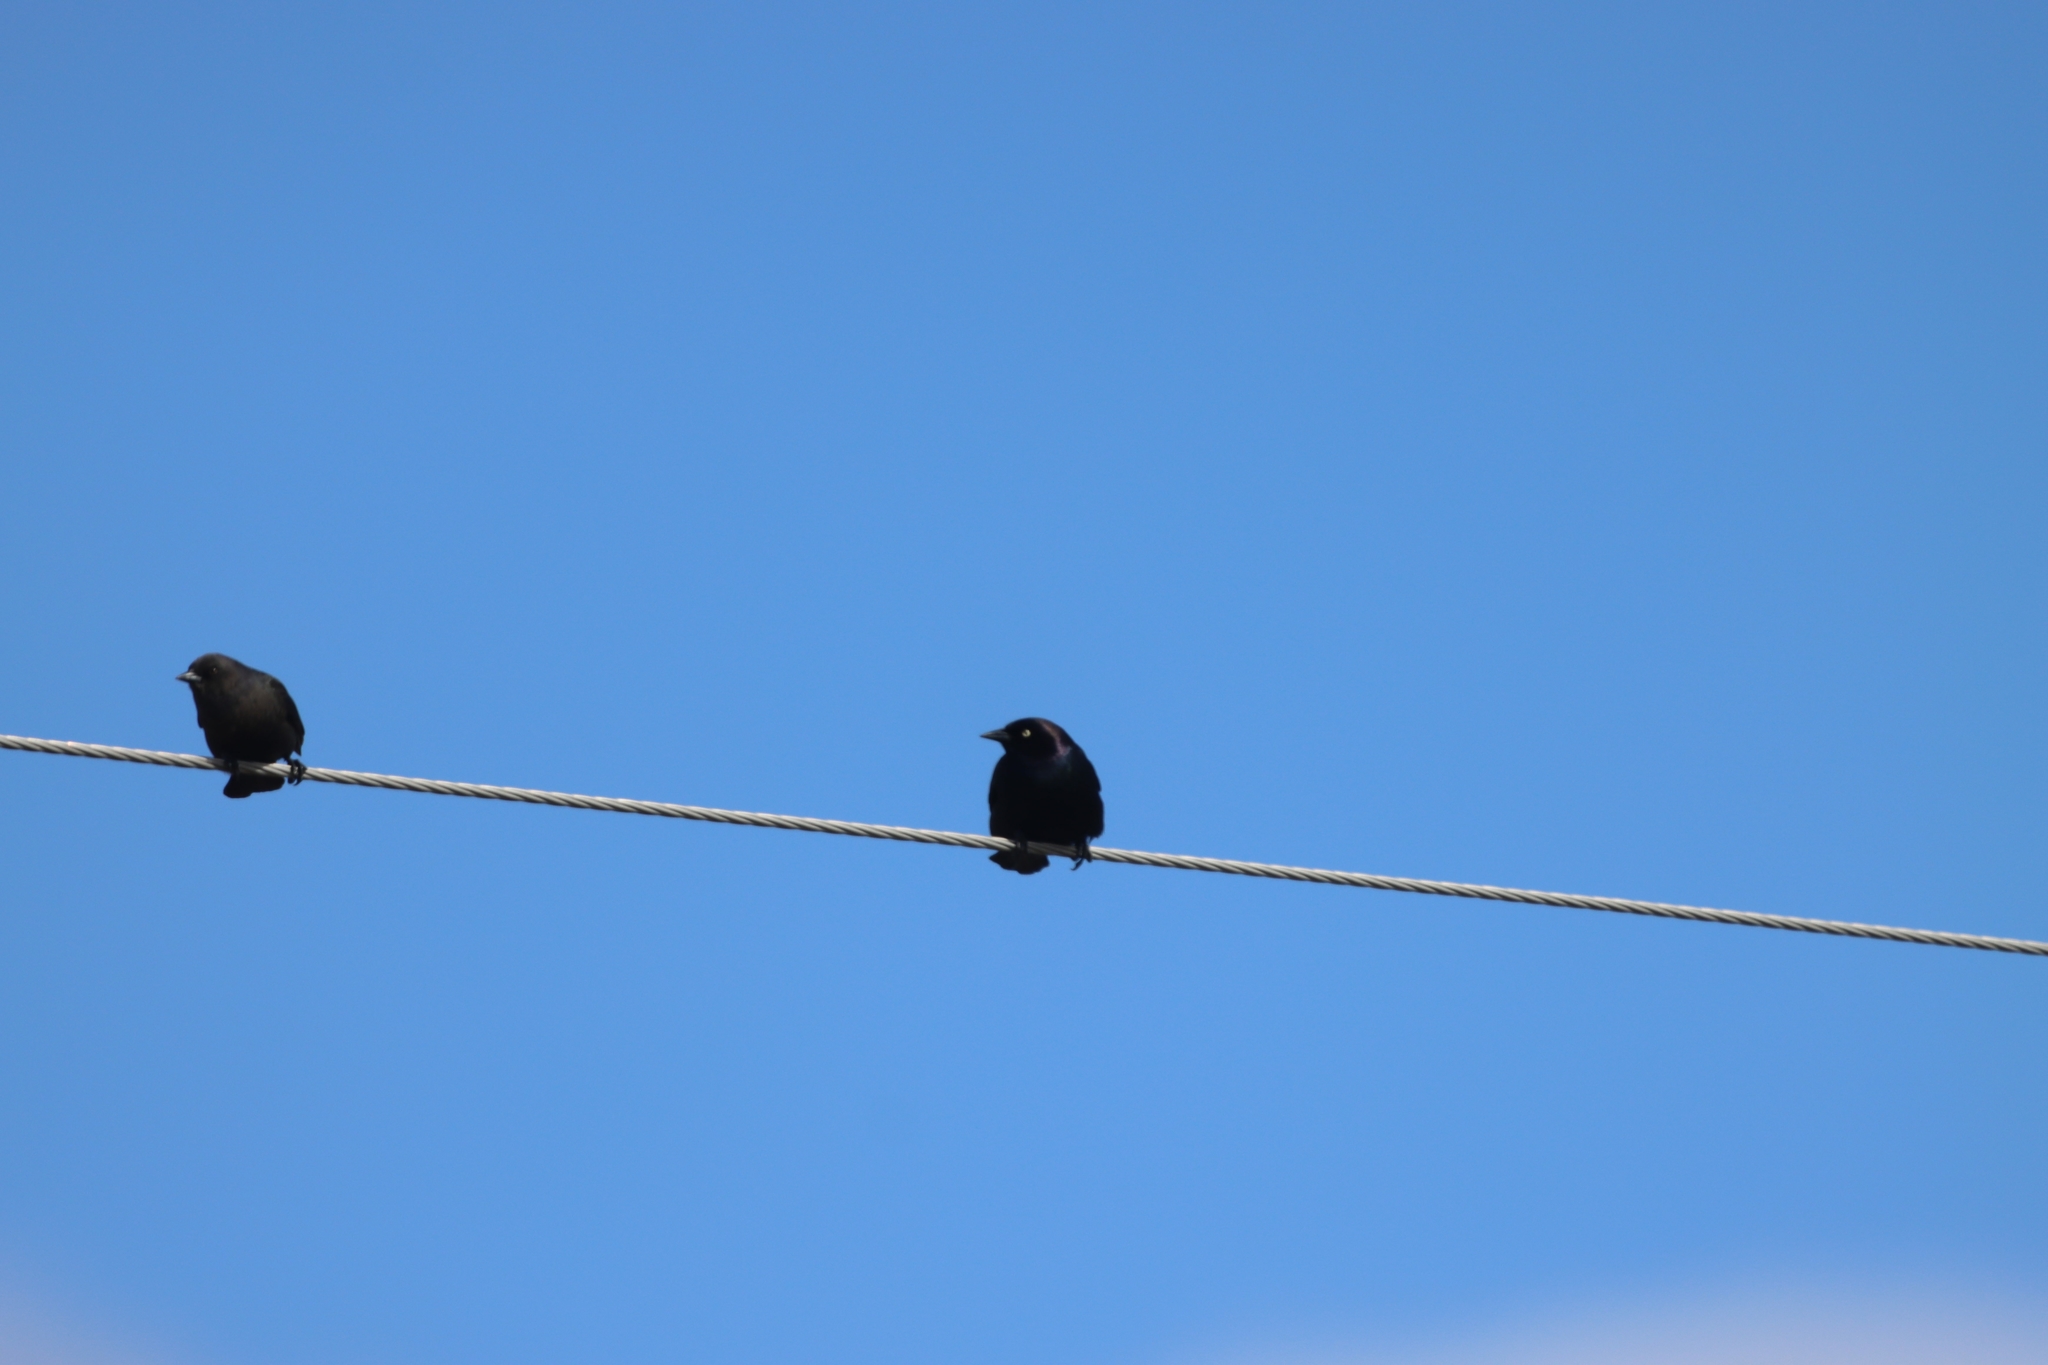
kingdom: Animalia
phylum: Chordata
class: Aves
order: Passeriformes
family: Icteridae
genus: Euphagus
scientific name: Euphagus cyanocephalus
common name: Brewer's blackbird
